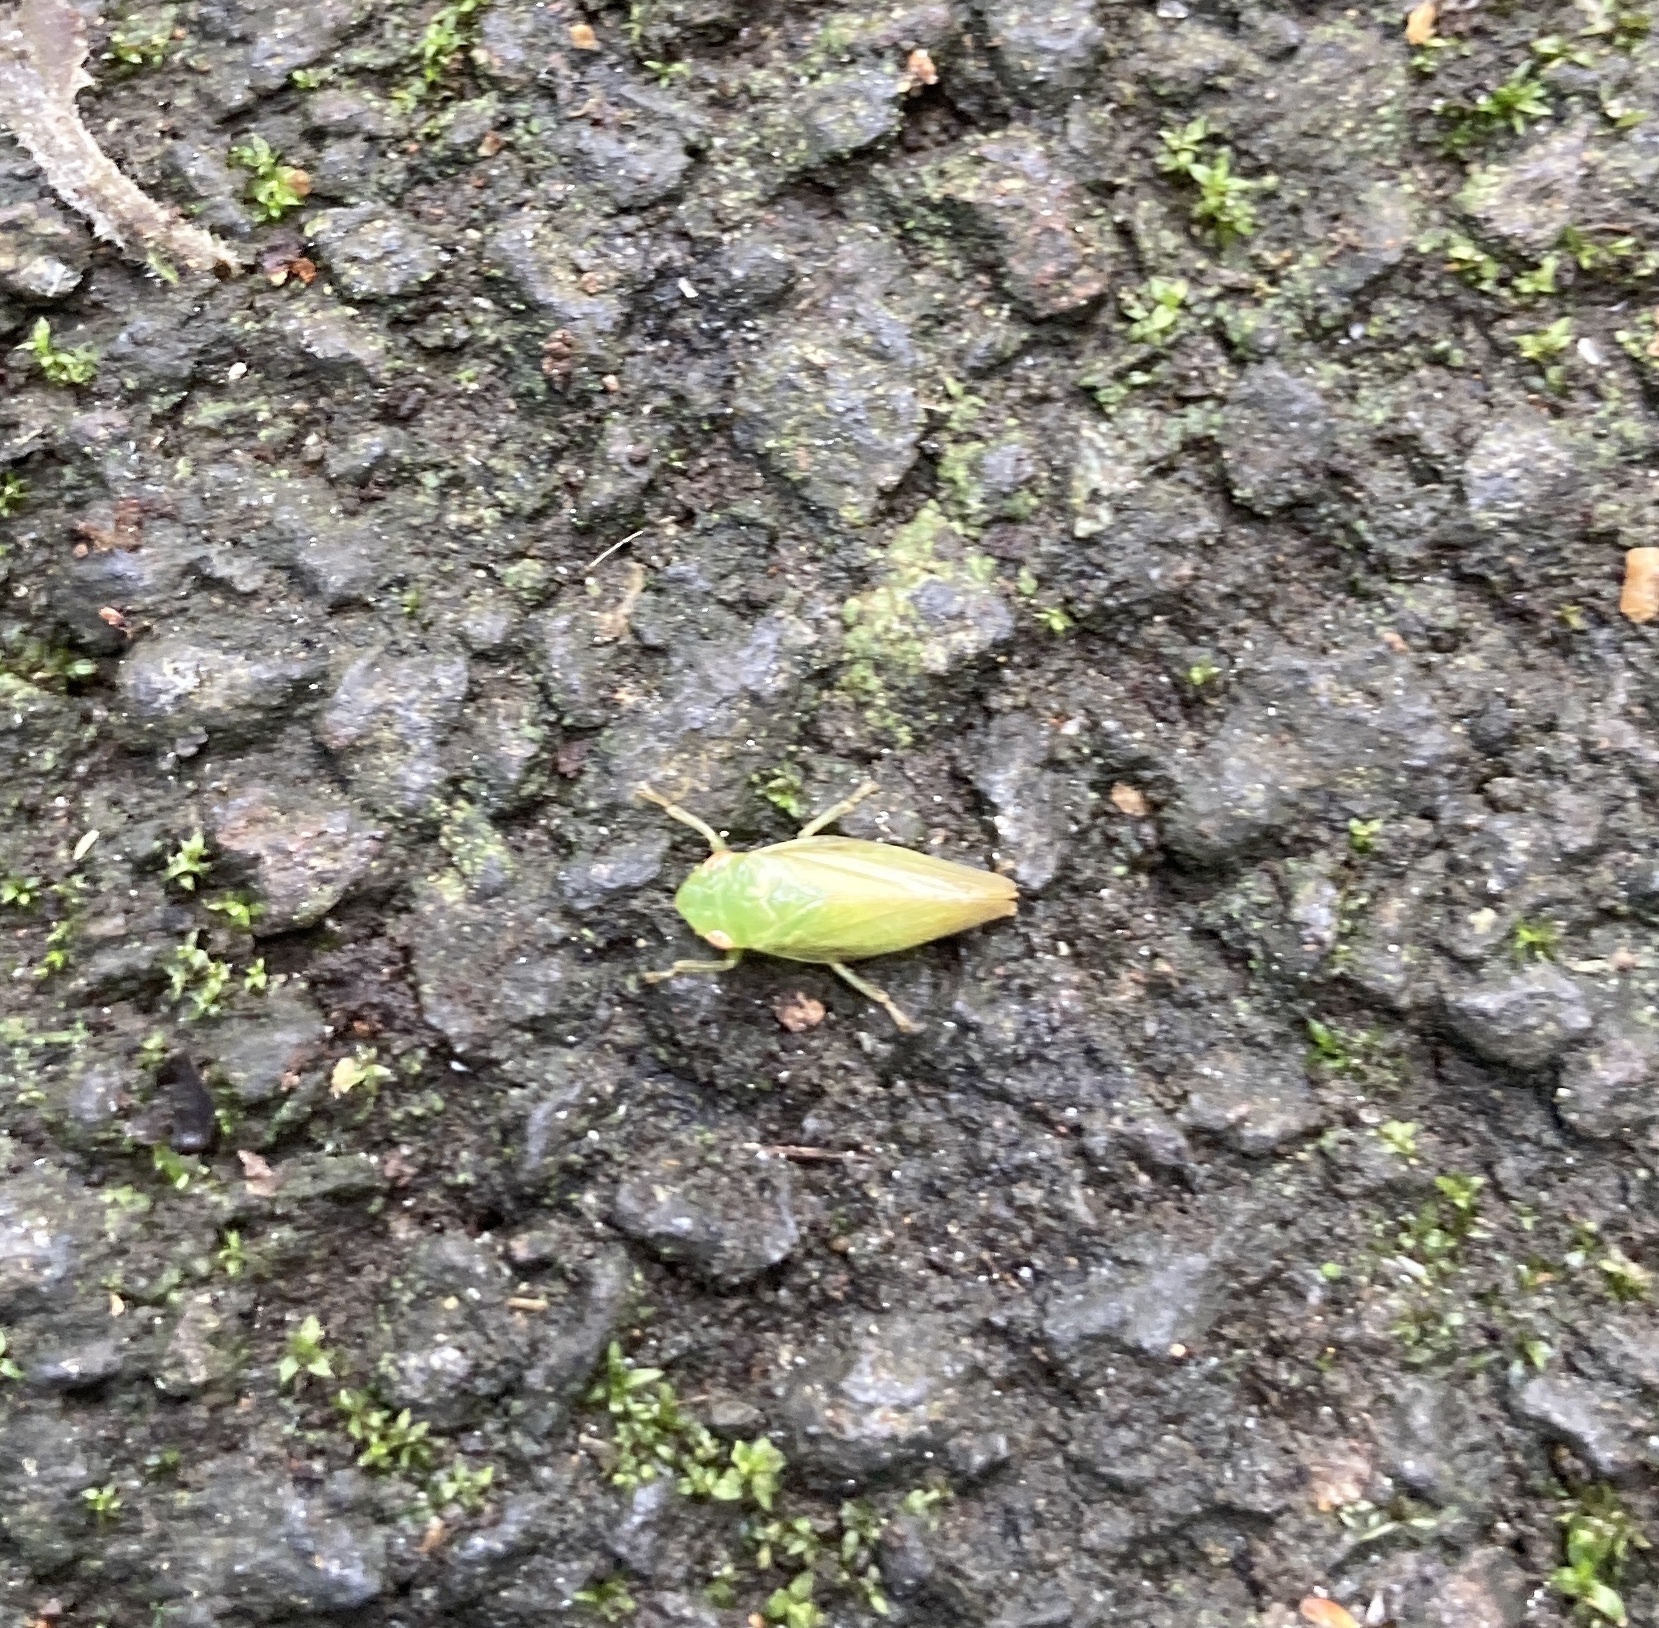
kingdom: Animalia
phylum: Arthropoda
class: Insecta
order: Hemiptera
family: Aphrophoridae
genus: Philaenus
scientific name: Philaenus spumarius
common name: Meadow spittlebug
